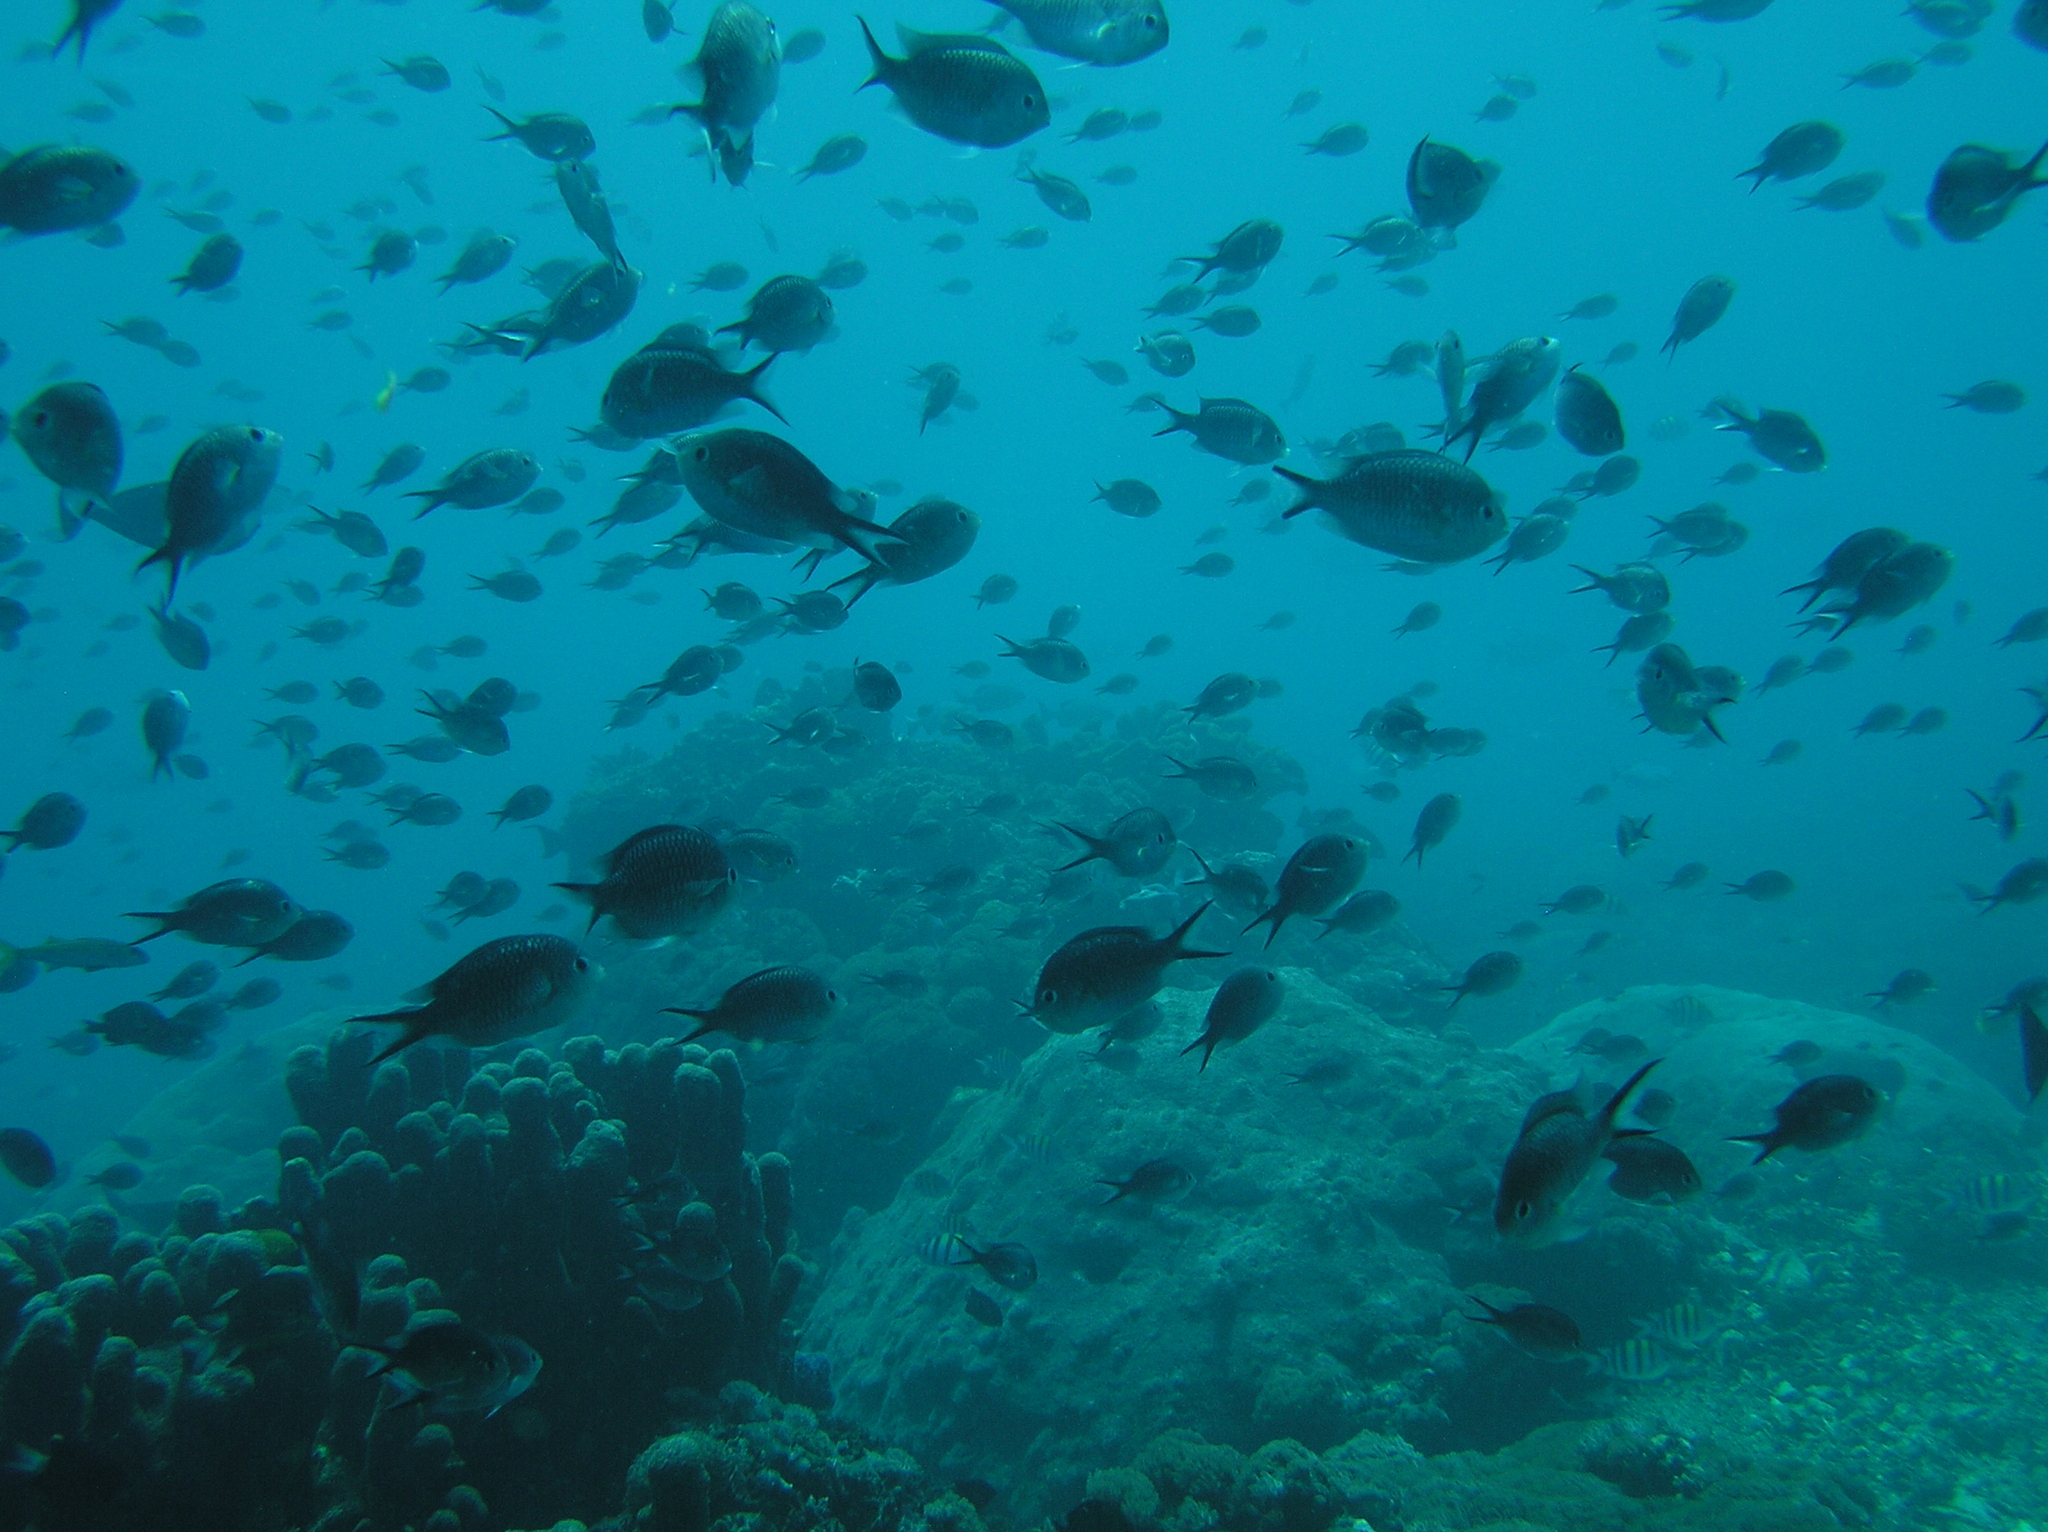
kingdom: Animalia
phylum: Chordata
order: Perciformes
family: Pomacentridae
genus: Chromis
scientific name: Chromis ternatensis
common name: Ternate chromis
